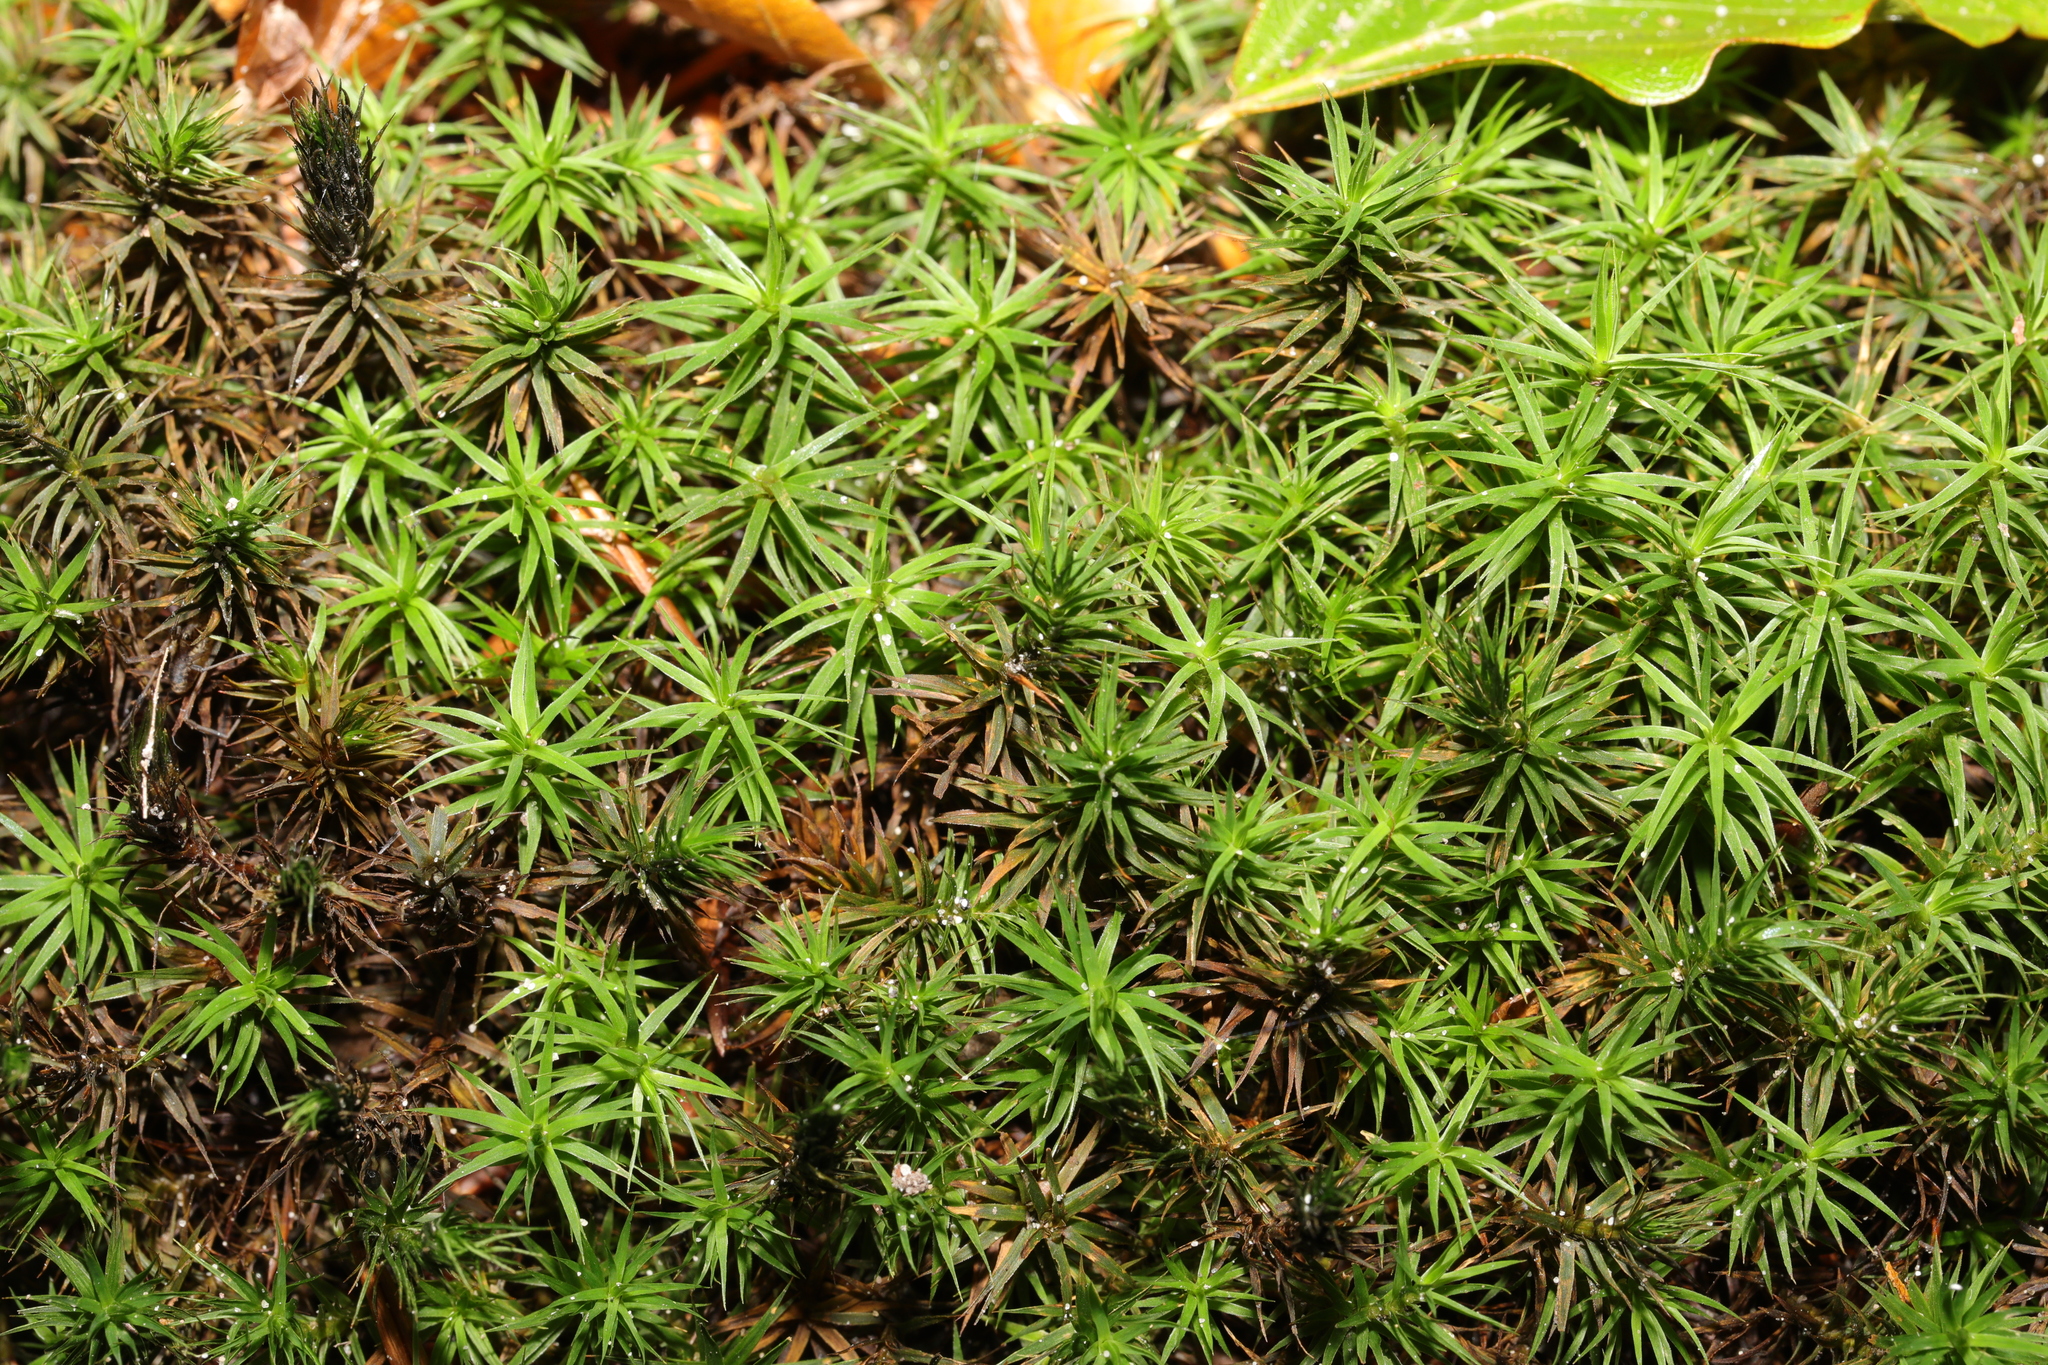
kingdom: Plantae
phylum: Bryophyta
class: Polytrichopsida
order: Polytrichales
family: Polytrichaceae
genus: Polytrichum
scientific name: Polytrichum formosum
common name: Bank haircap moss
